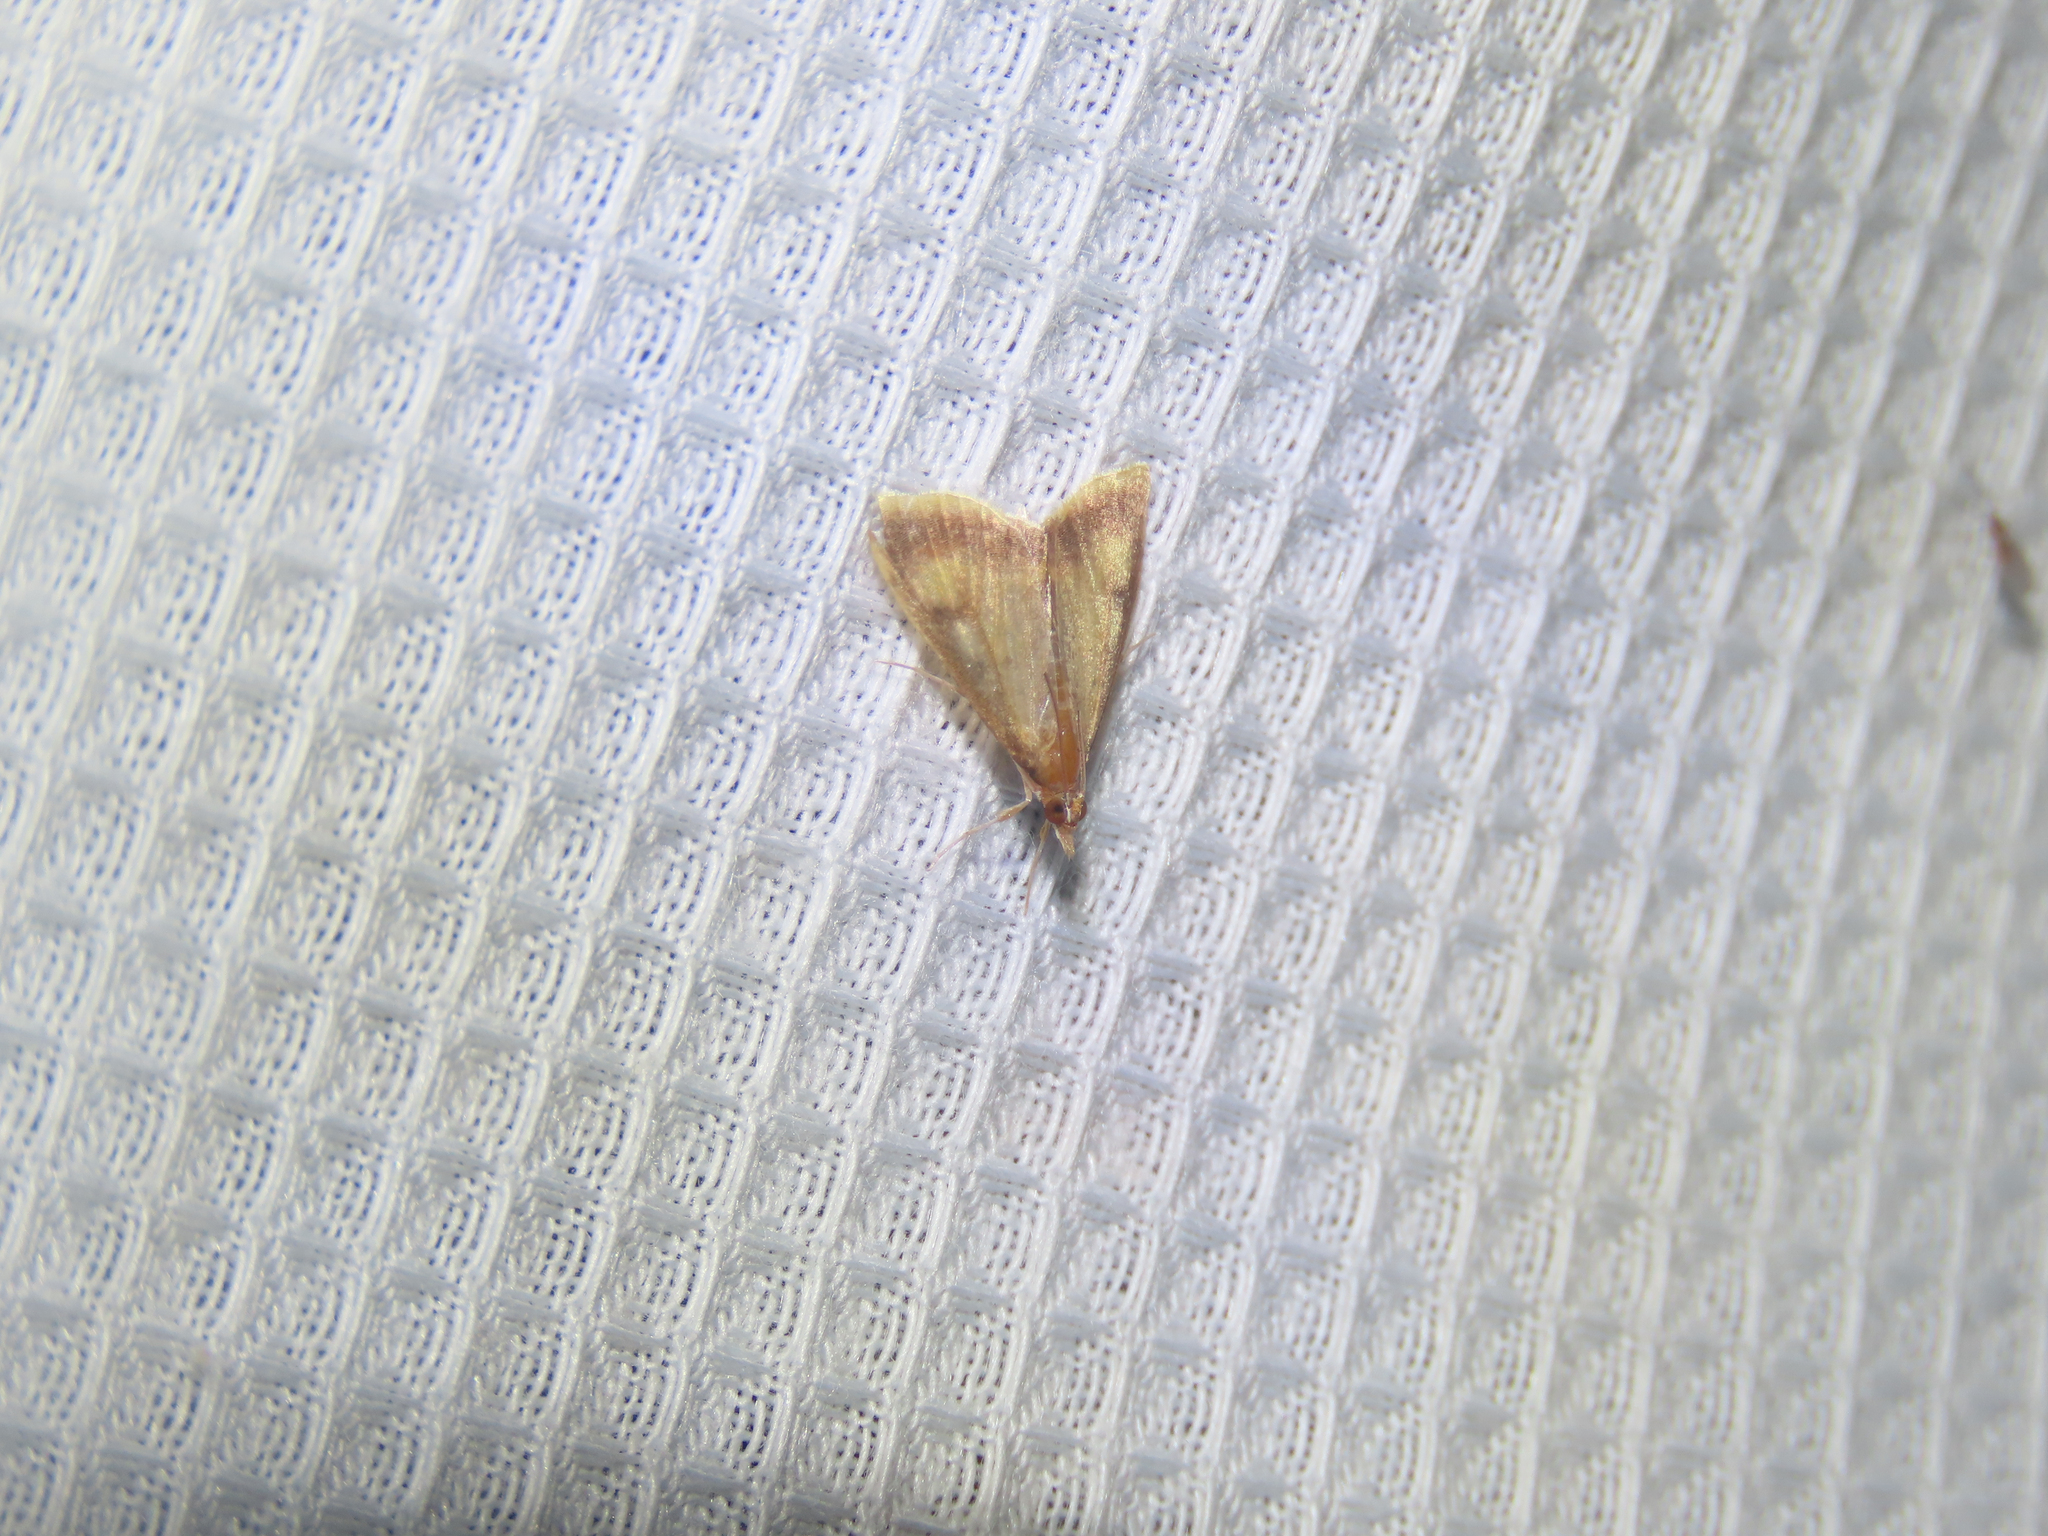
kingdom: Animalia
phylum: Arthropoda
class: Insecta
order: Lepidoptera
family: Crambidae
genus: Pyrausta
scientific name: Pyrausta acrionalis
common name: Mint-loving pyrausta moth
